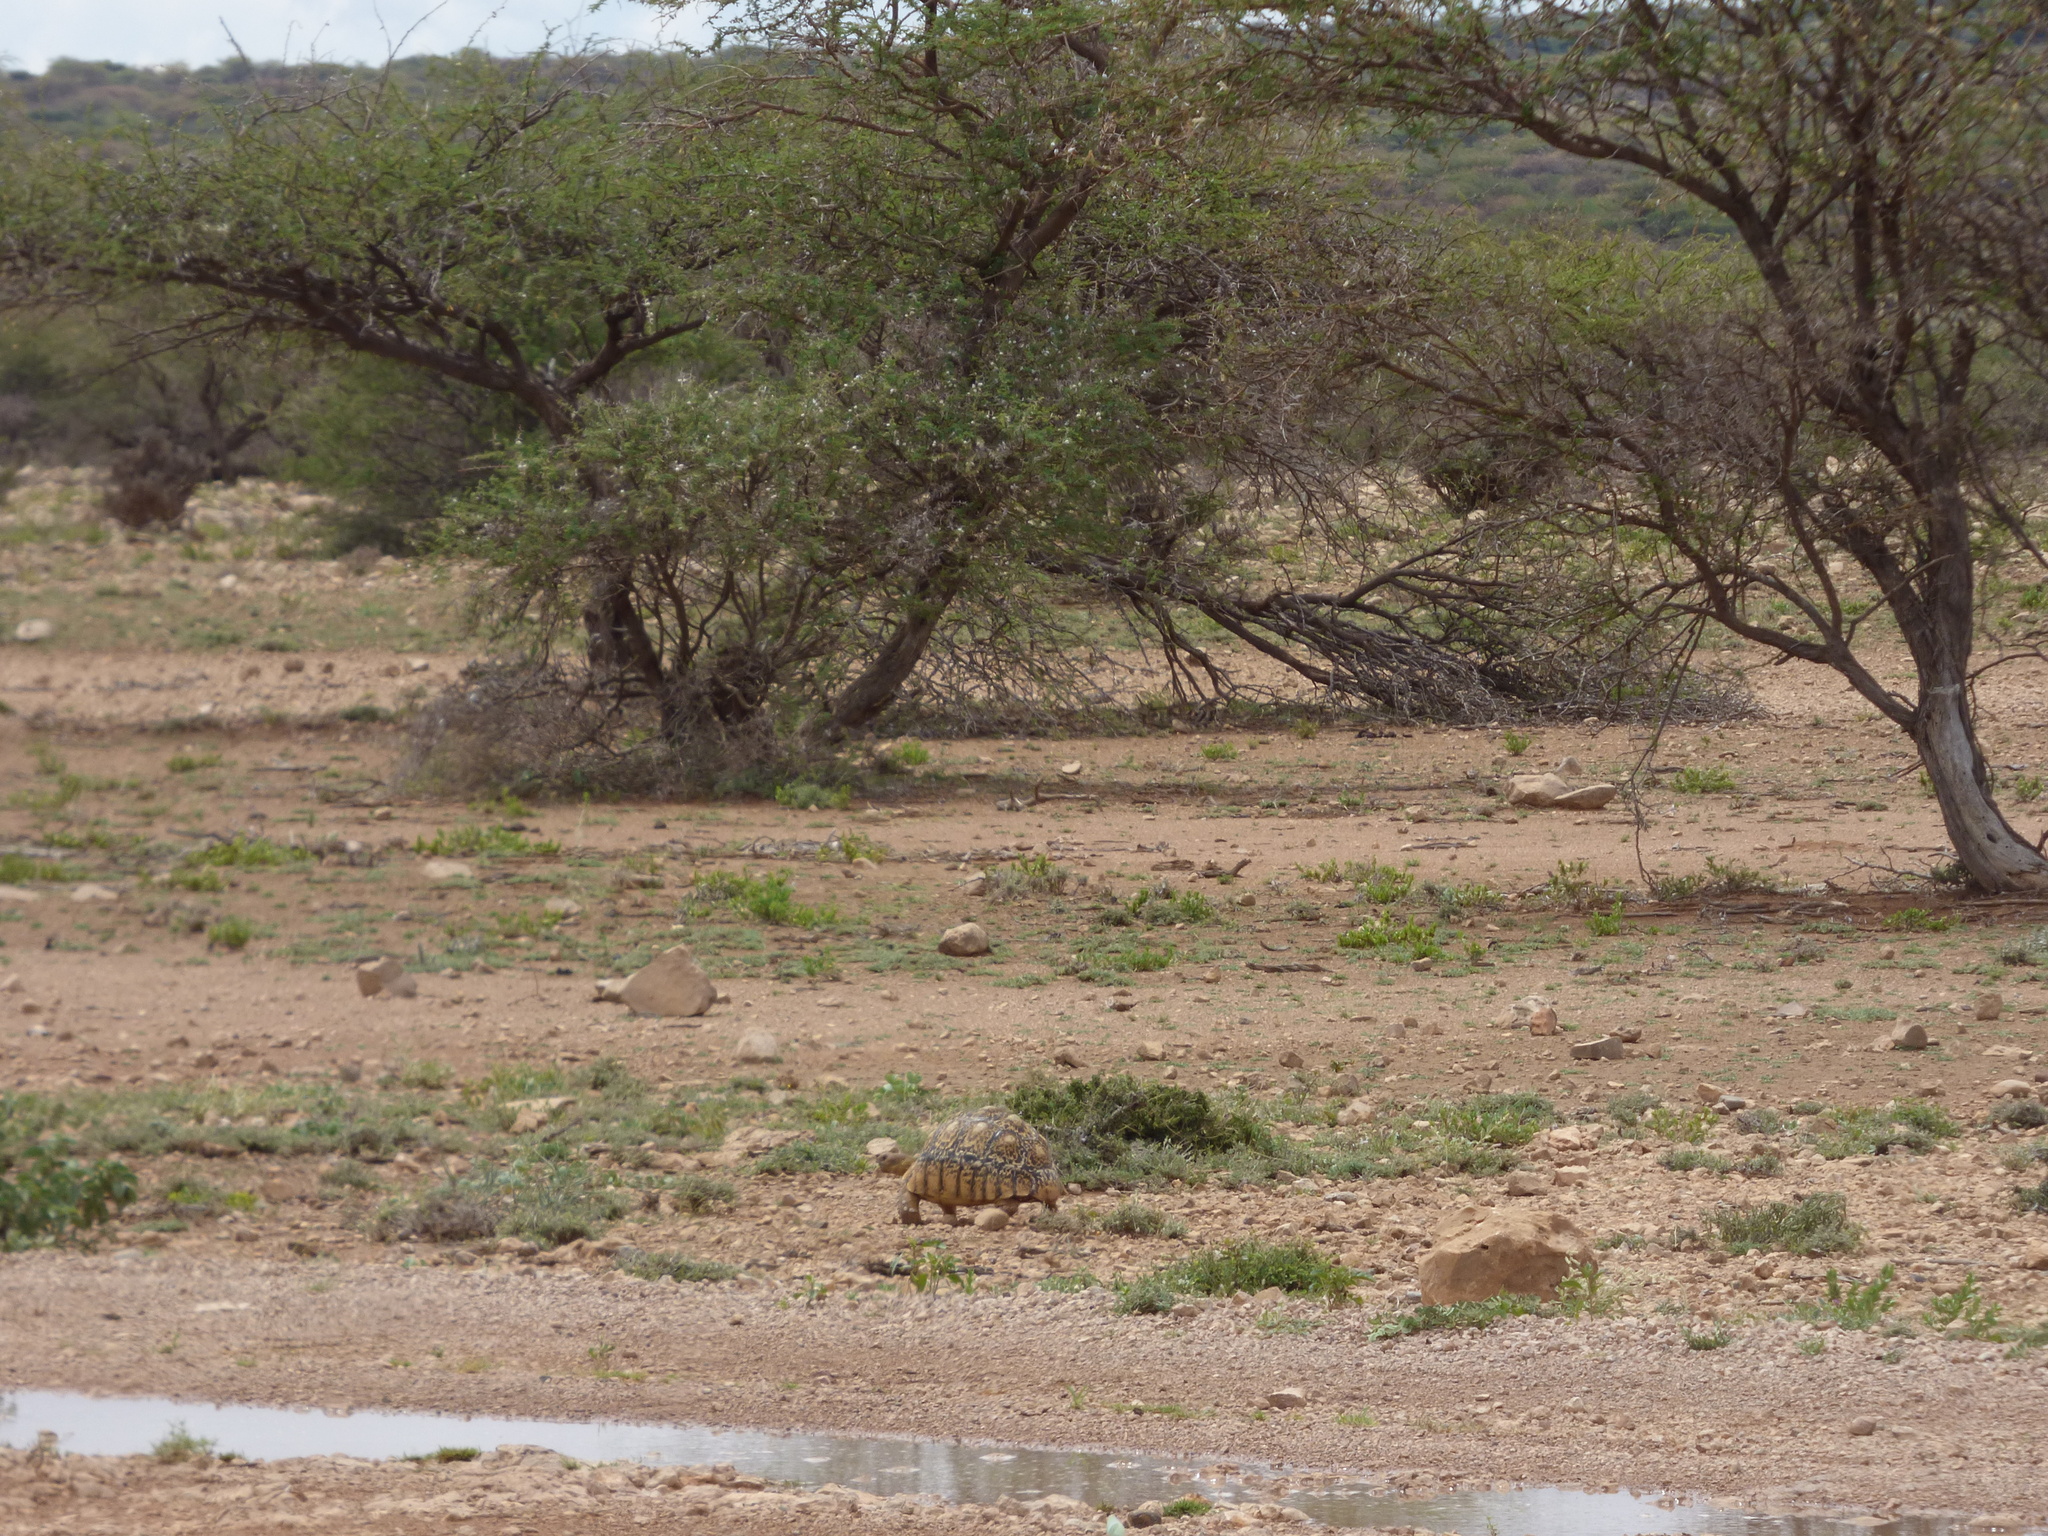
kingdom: Animalia
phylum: Chordata
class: Testudines
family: Testudinidae
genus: Stigmochelys
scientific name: Stigmochelys pardalis
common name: Leopard tortoise
